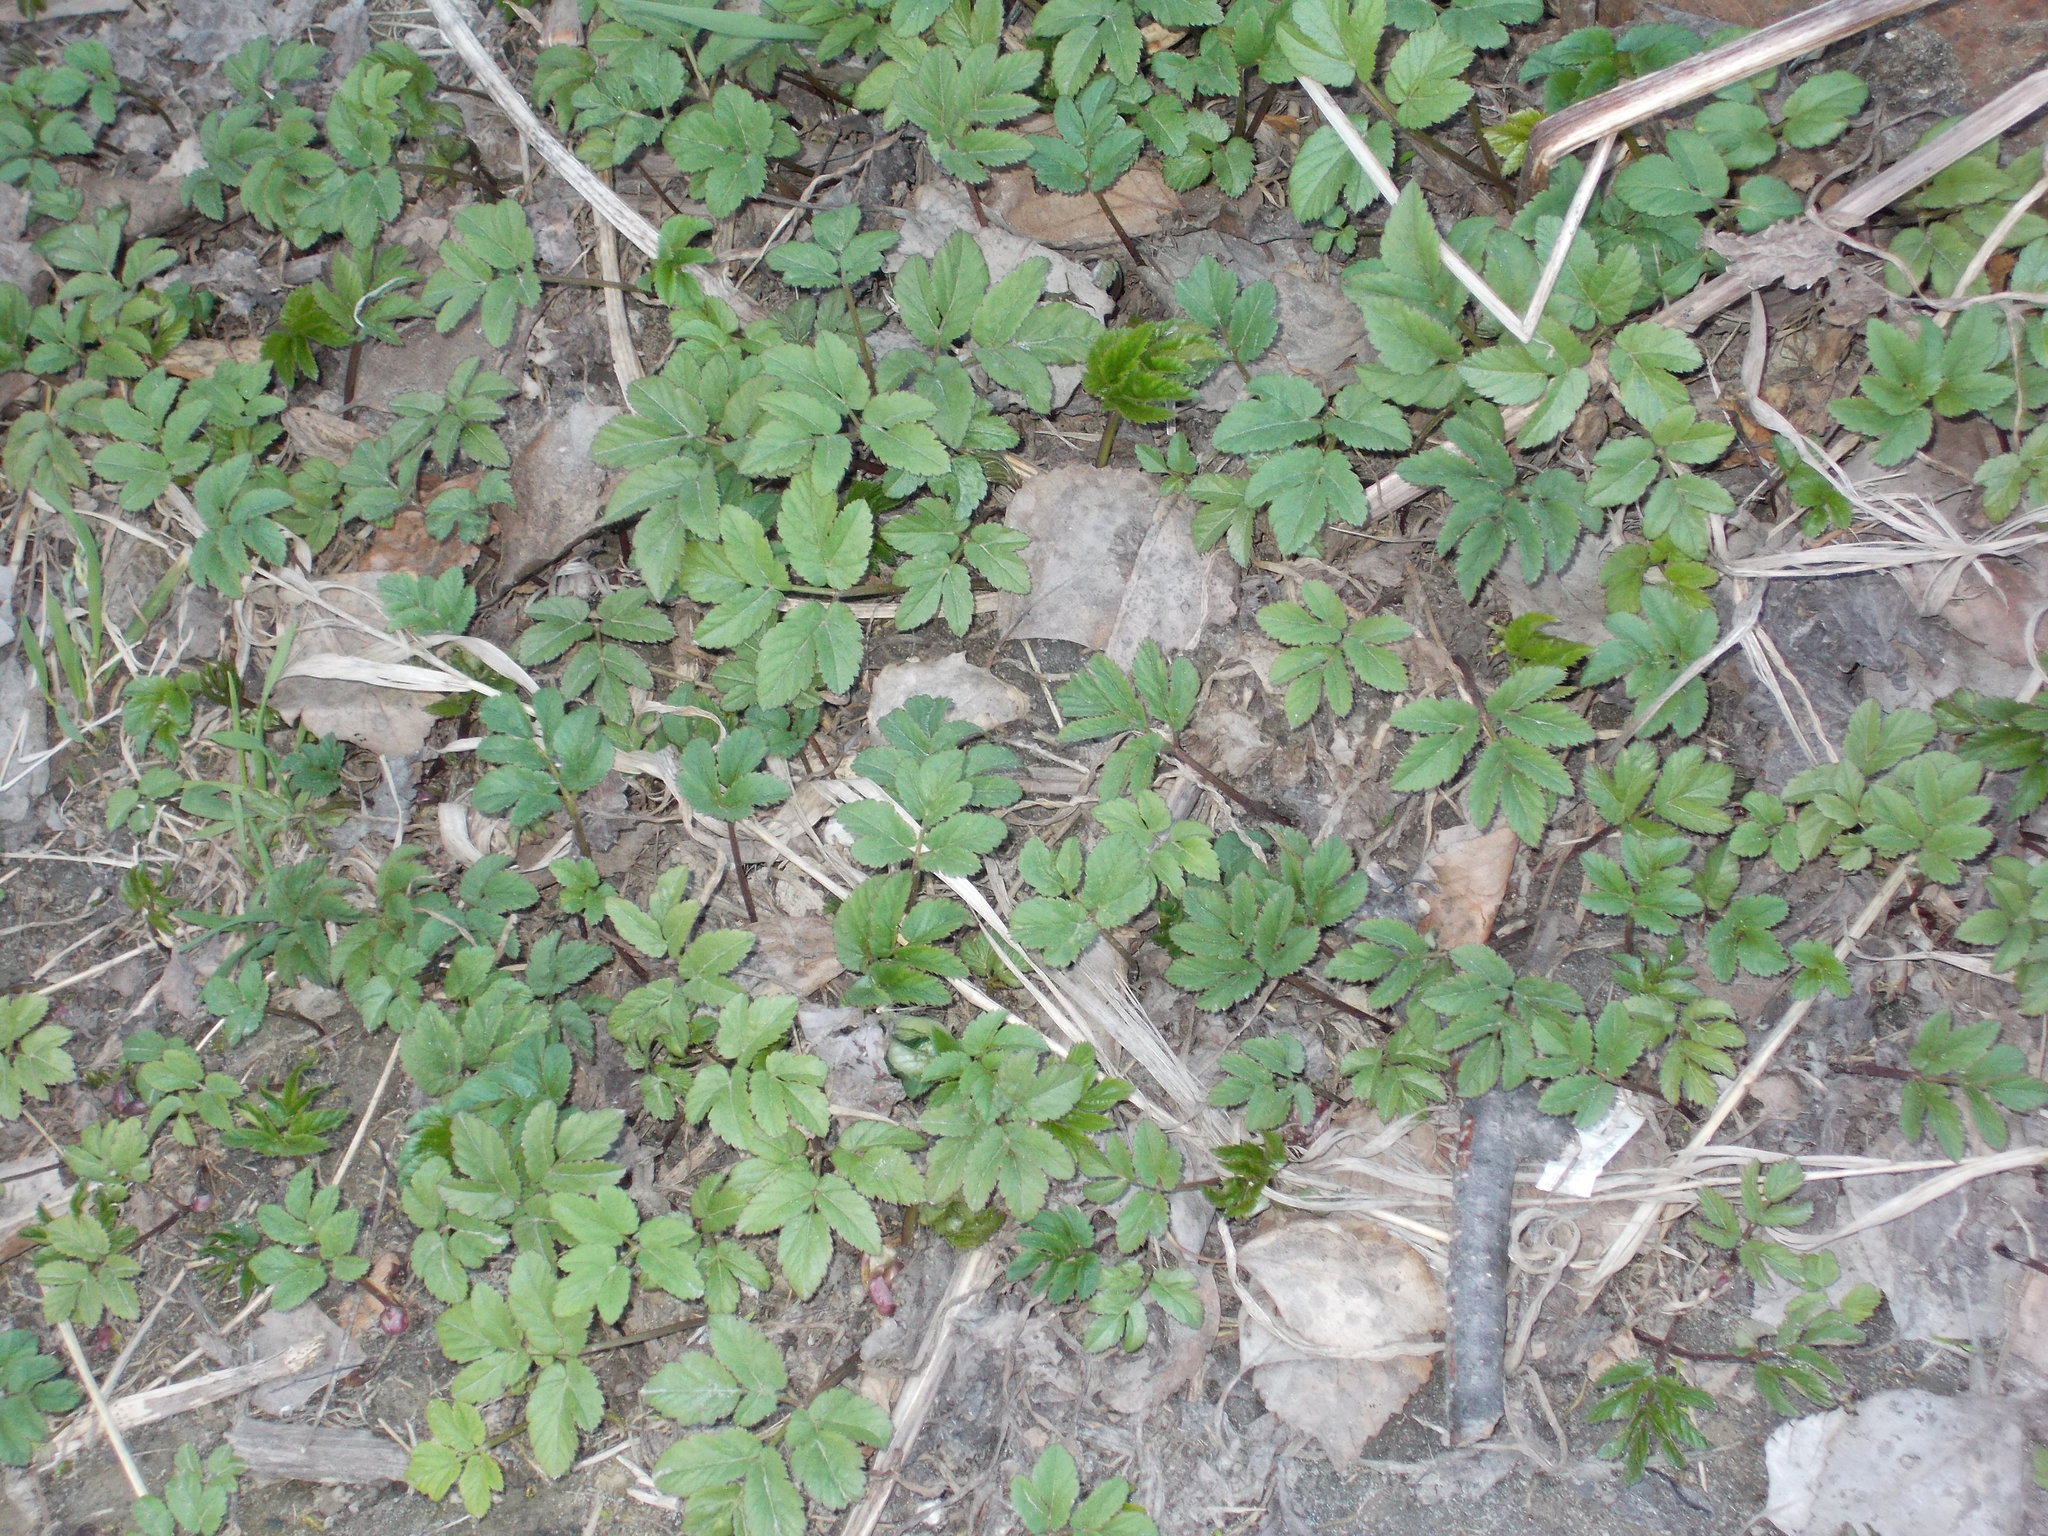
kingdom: Plantae
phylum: Tracheophyta
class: Magnoliopsida
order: Apiales
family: Apiaceae
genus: Aegopodium
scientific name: Aegopodium podagraria
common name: Ground-elder
